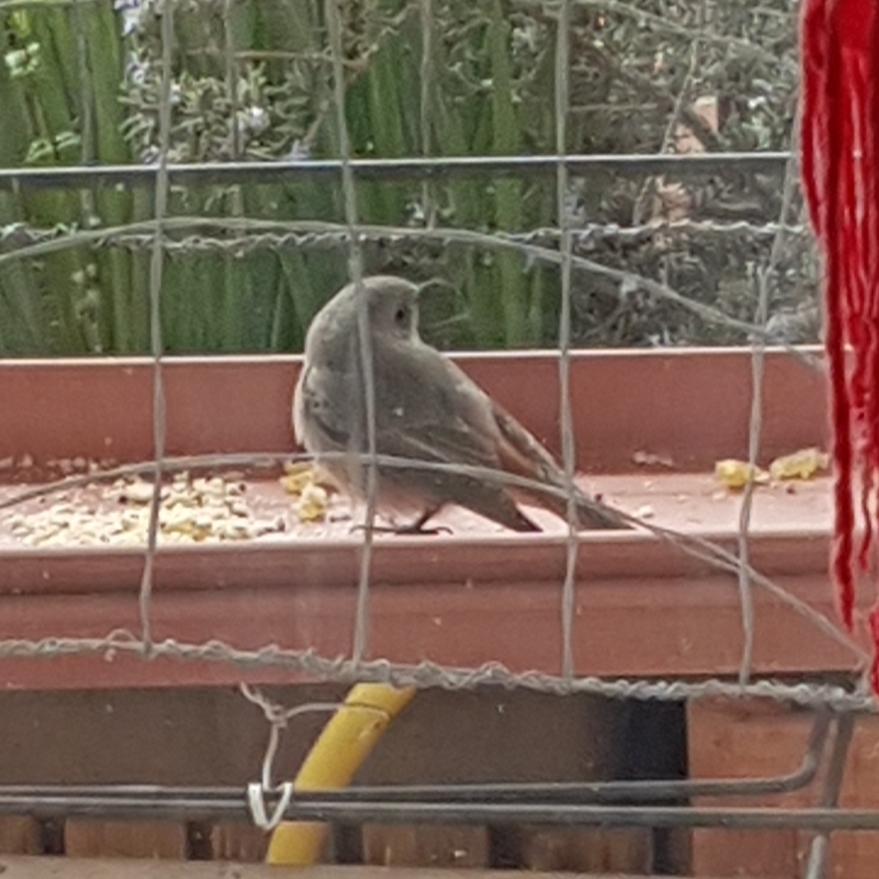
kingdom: Animalia
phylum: Chordata
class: Aves
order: Passeriformes
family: Muscicapidae
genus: Phoenicurus
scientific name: Phoenicurus ochruros
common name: Black redstart
